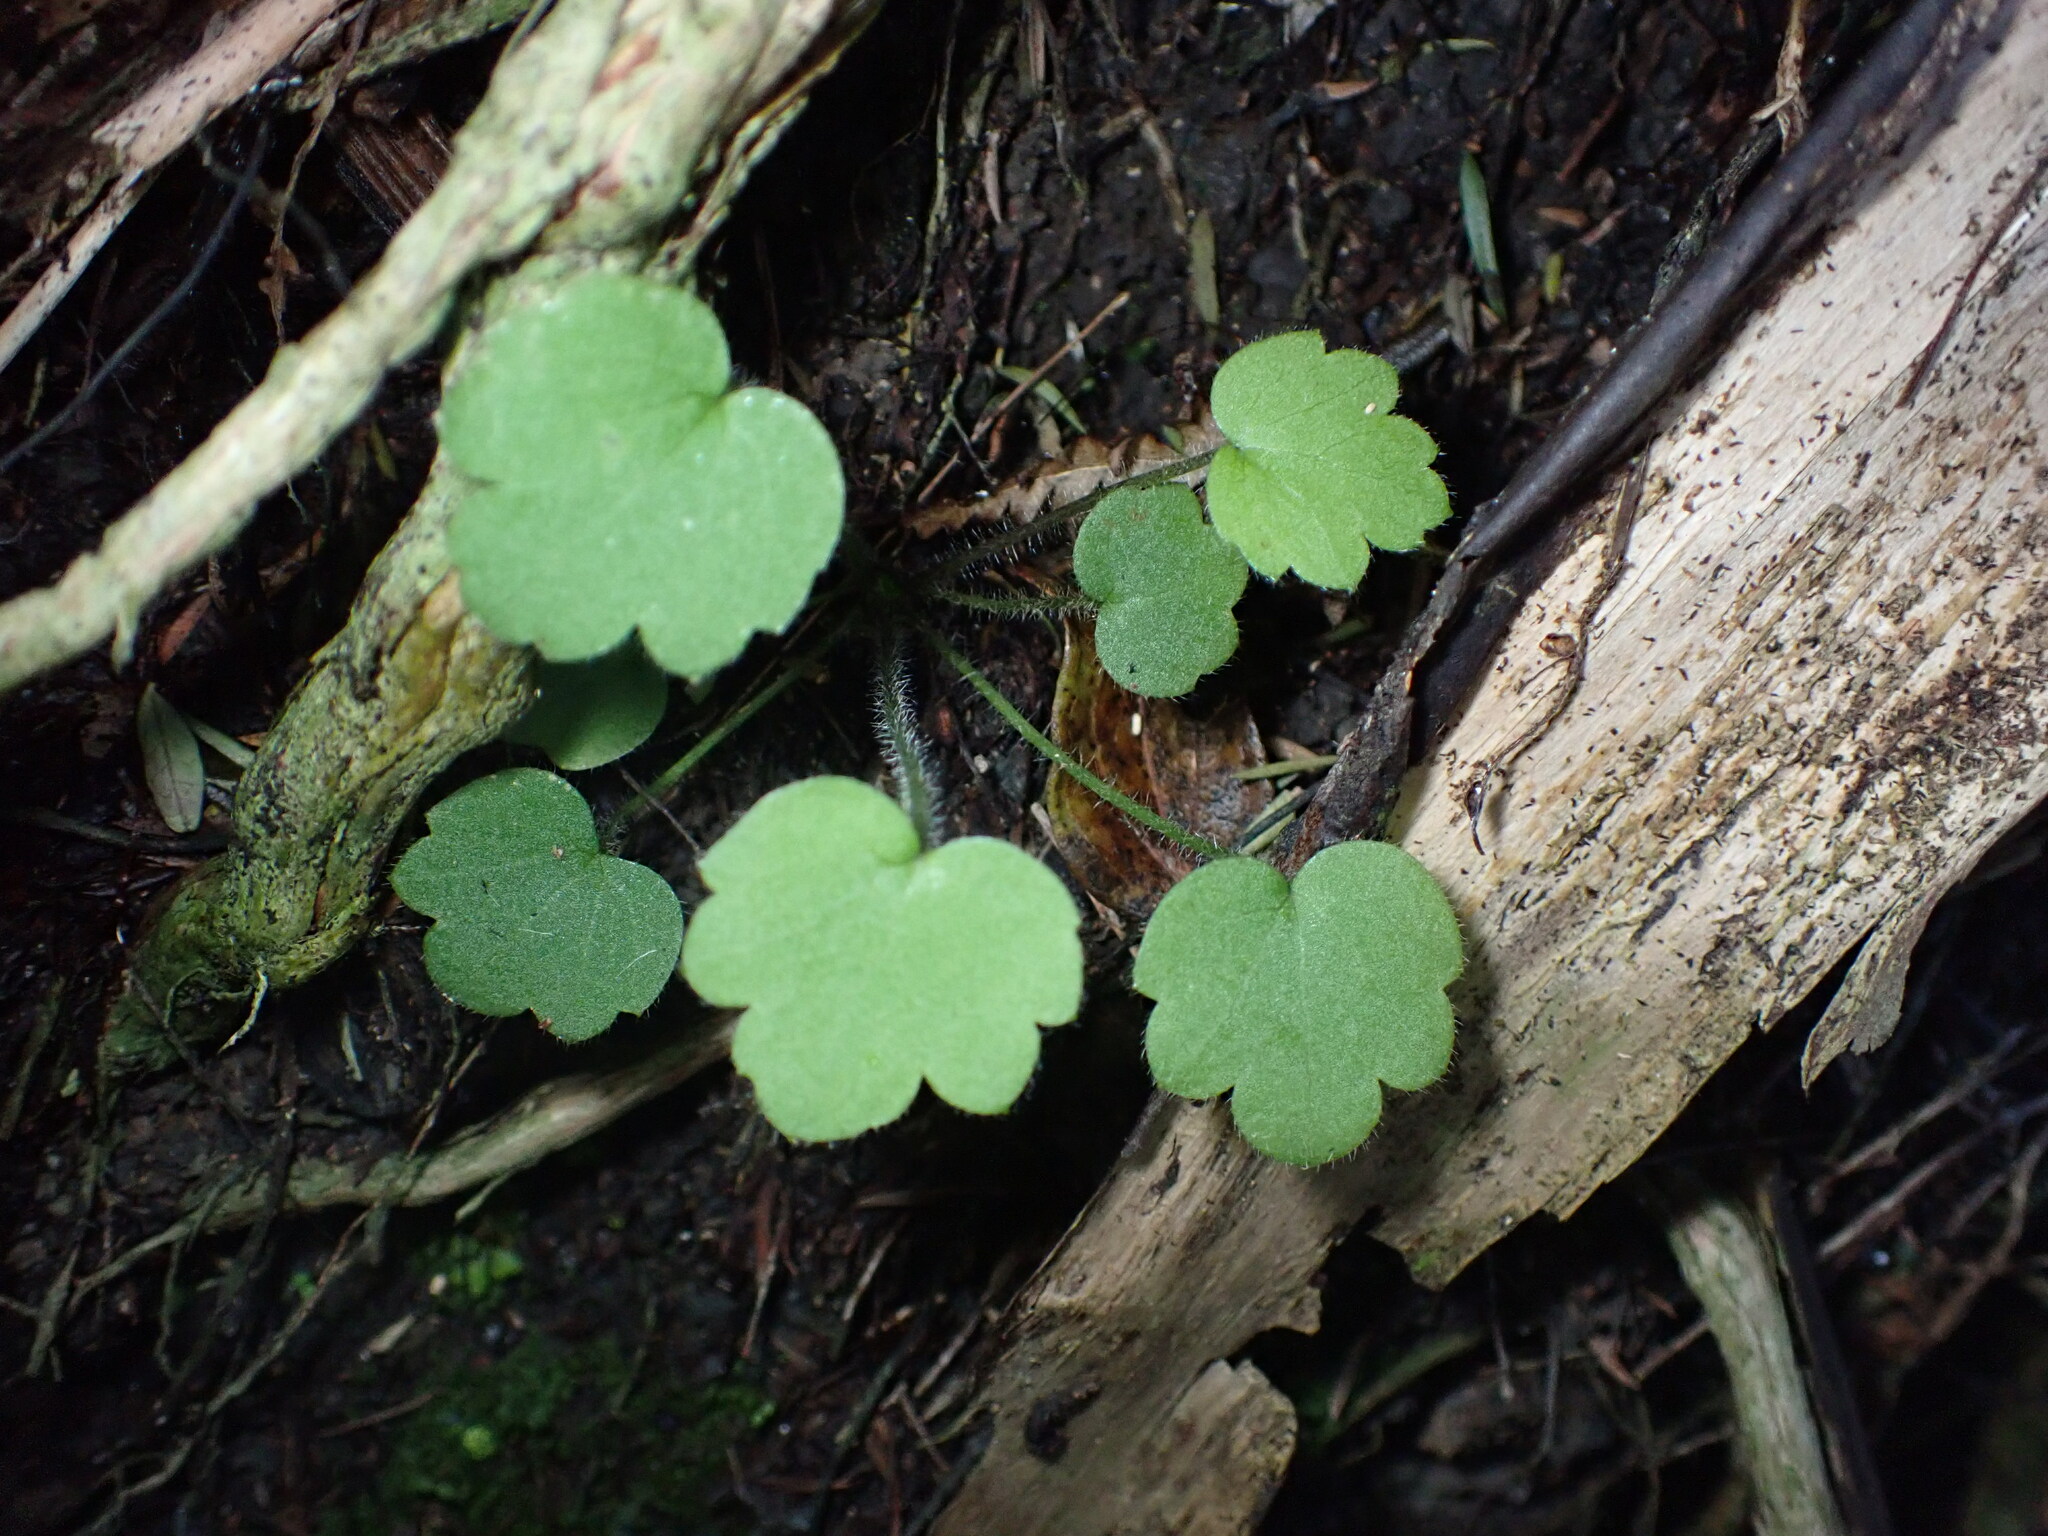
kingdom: Plantae
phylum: Tracheophyta
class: Magnoliopsida
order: Ranunculales
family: Ranunculaceae
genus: Ranunculus
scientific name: Ranunculus reflexus
